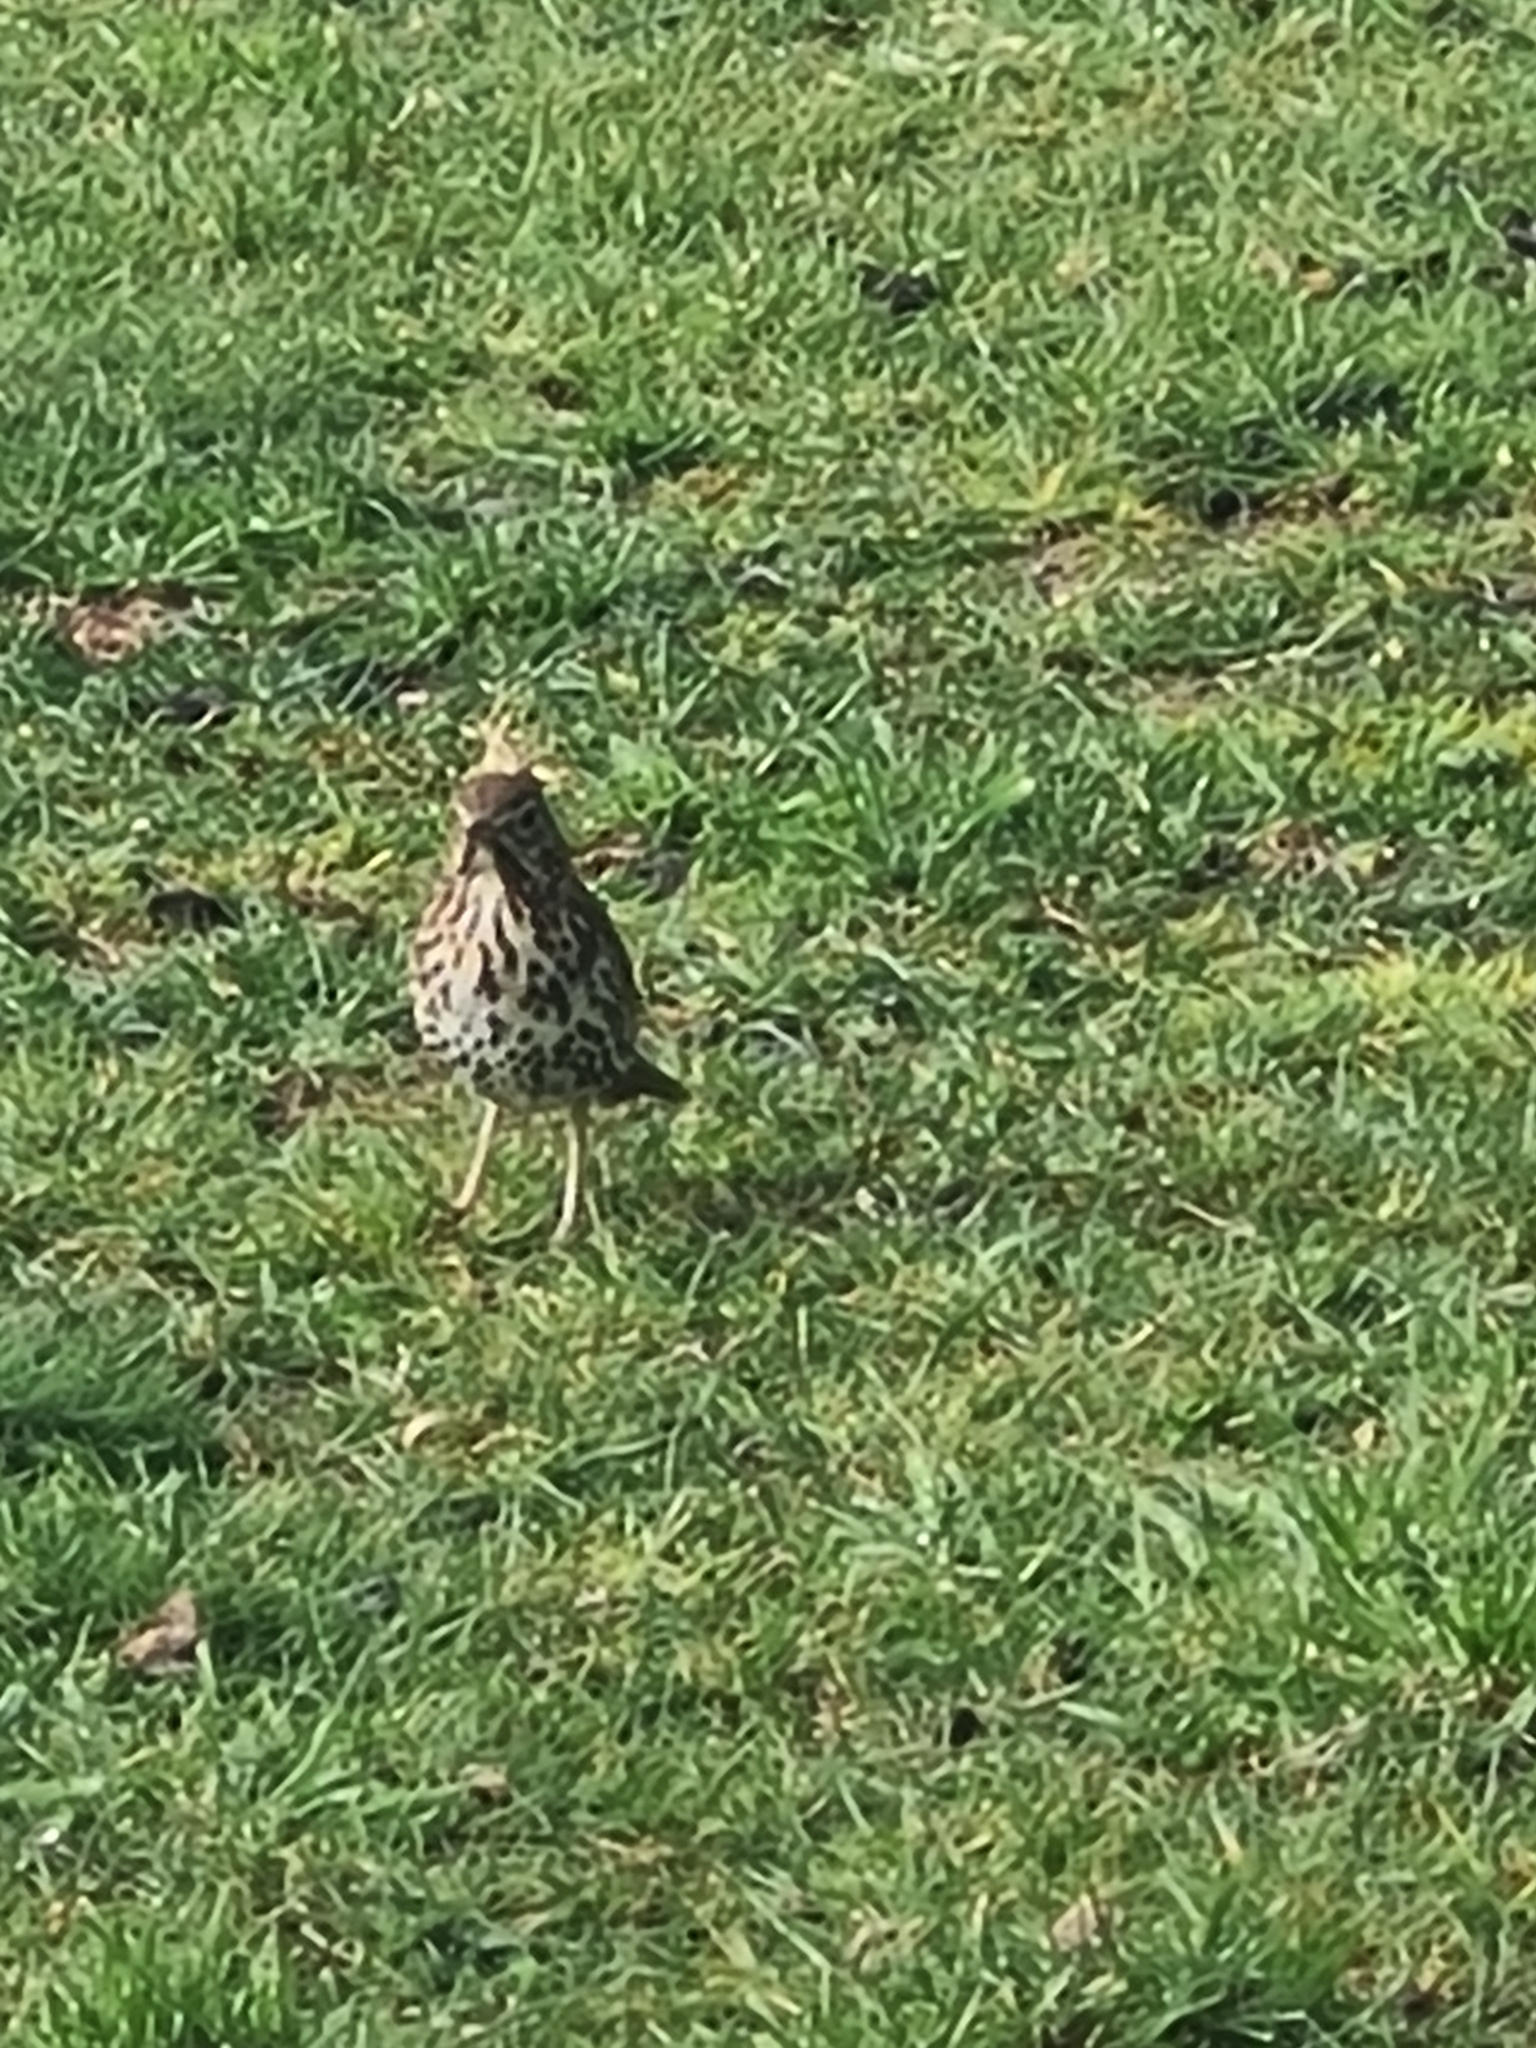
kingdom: Animalia
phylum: Chordata
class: Aves
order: Passeriformes
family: Turdidae
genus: Turdus
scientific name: Turdus philomelos
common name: Song thrush
